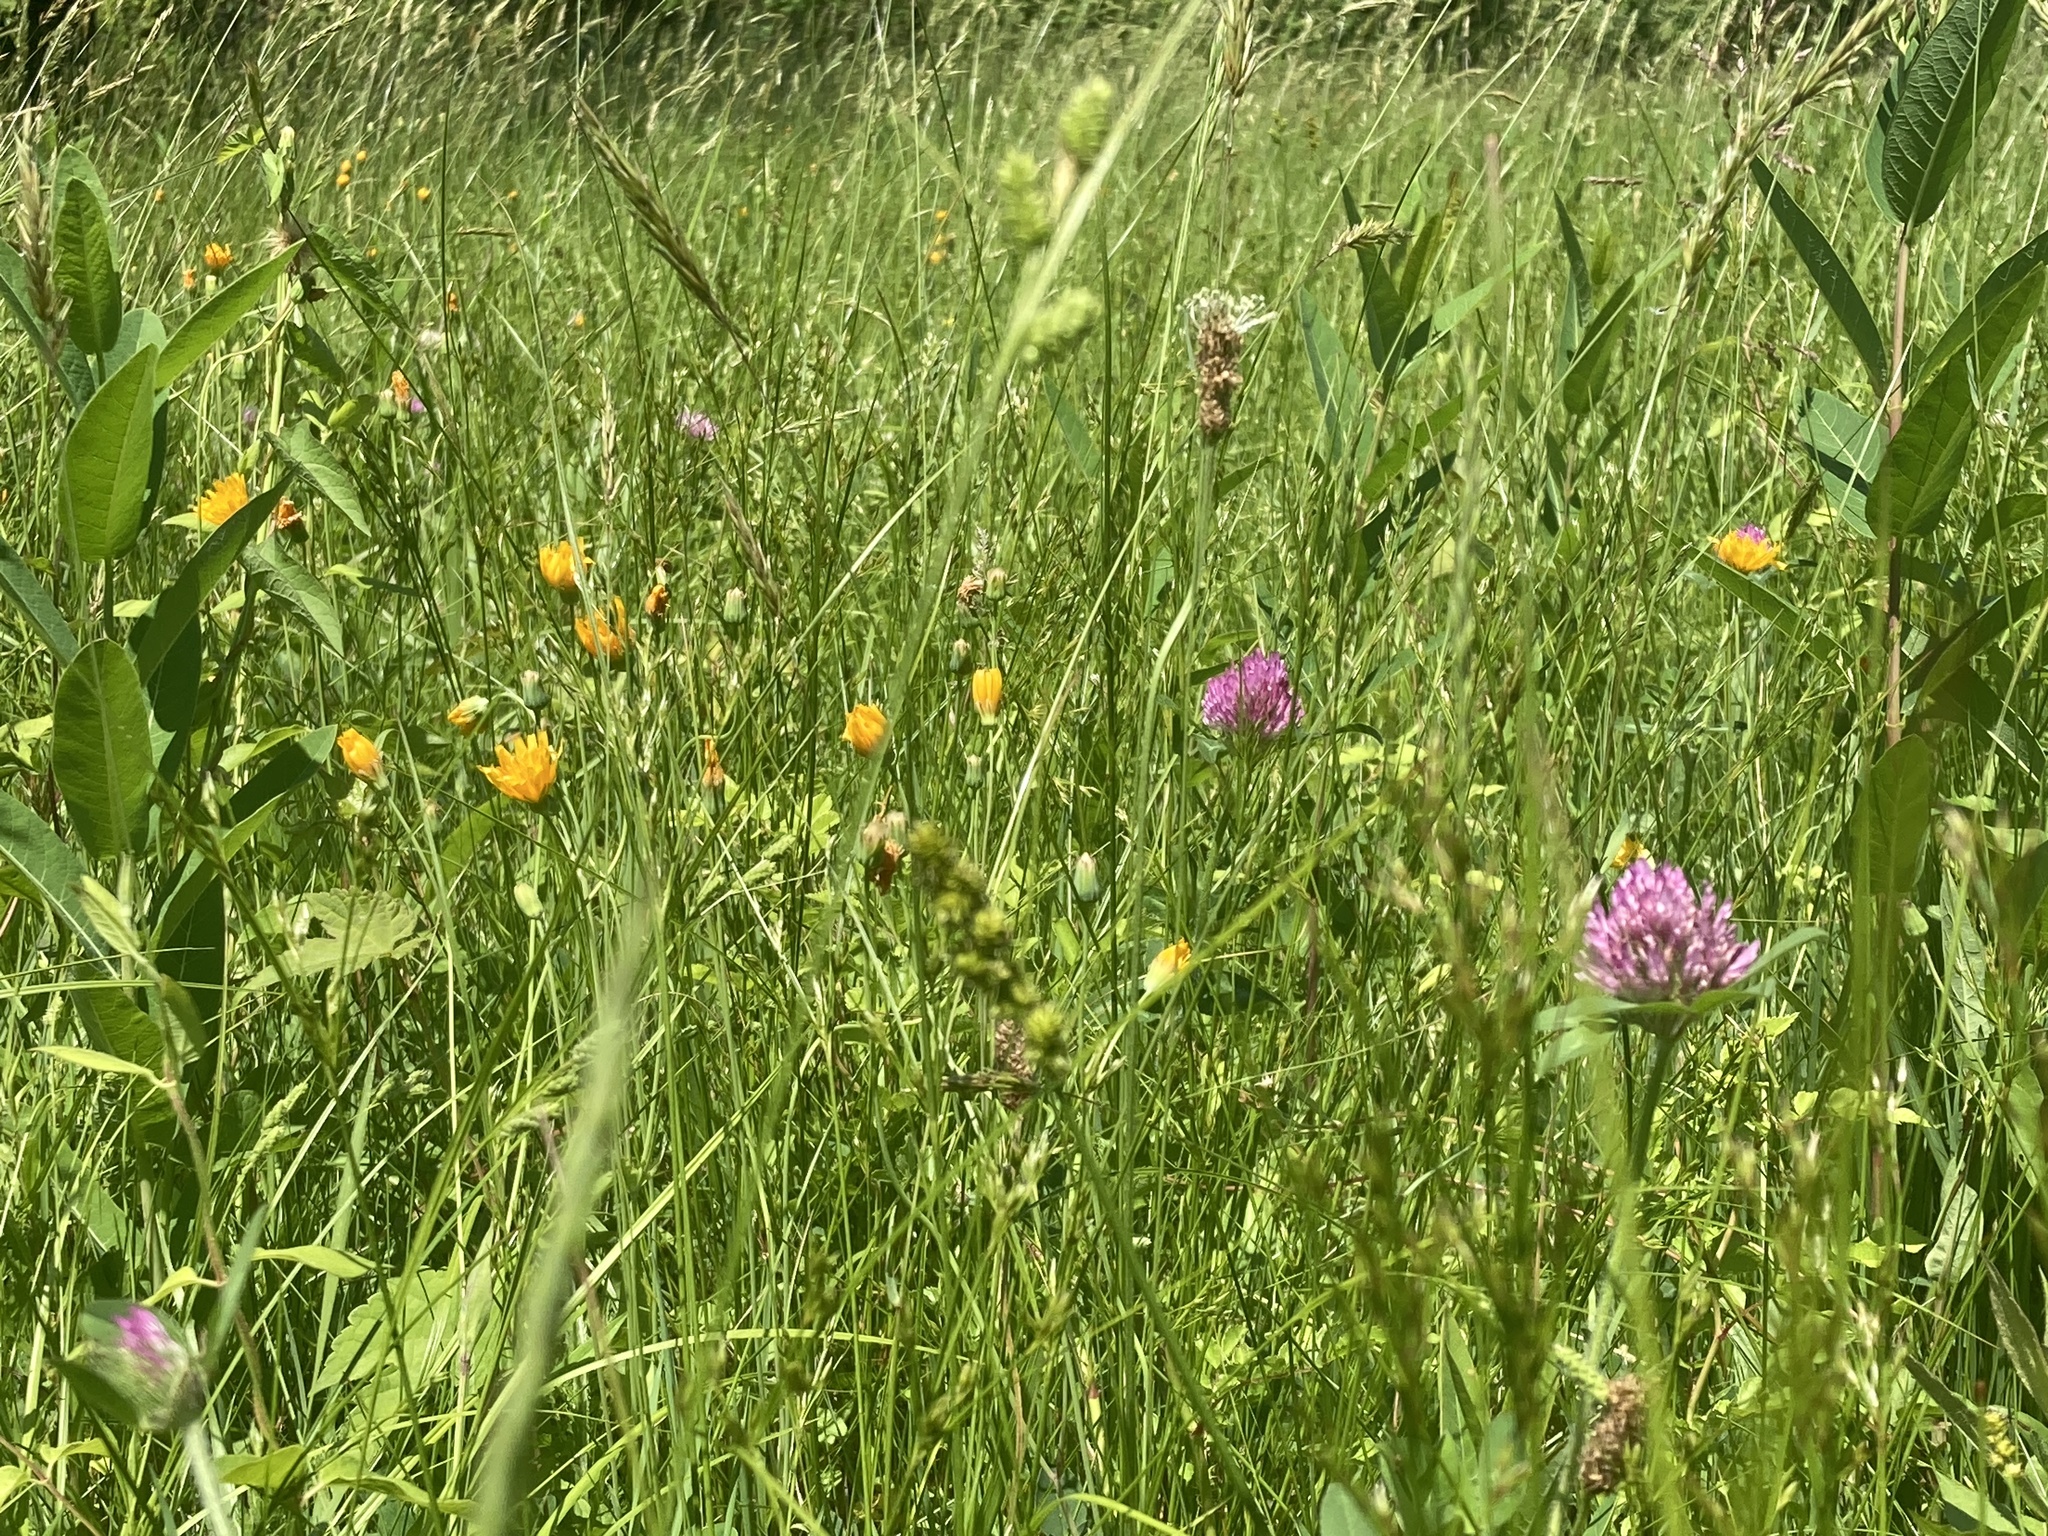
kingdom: Plantae
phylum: Tracheophyta
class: Magnoliopsida
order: Asterales
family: Asteraceae
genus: Krigia
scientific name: Krigia biflora
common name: Orange dwarf-dandelion
